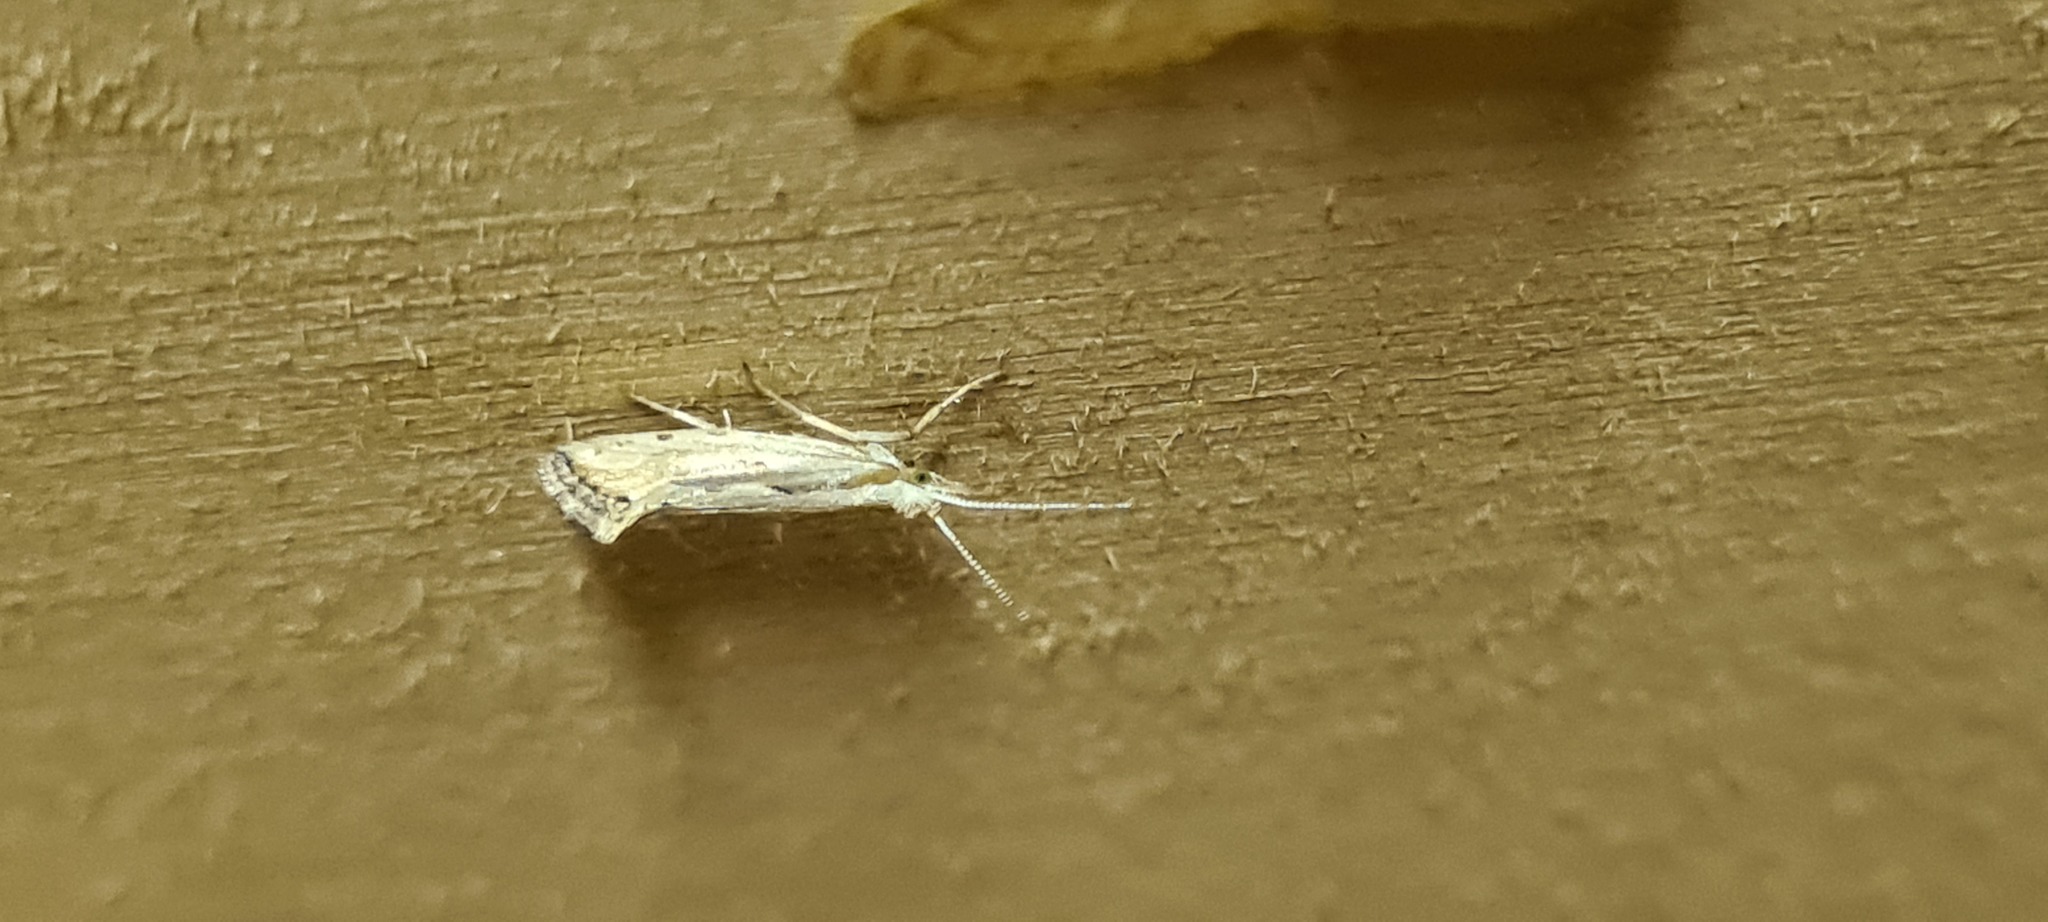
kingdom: Animalia
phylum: Arthropoda
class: Insecta
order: Lepidoptera
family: Plutellidae
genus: Plutella
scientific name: Plutella porrectella
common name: Dame's rocket moth
